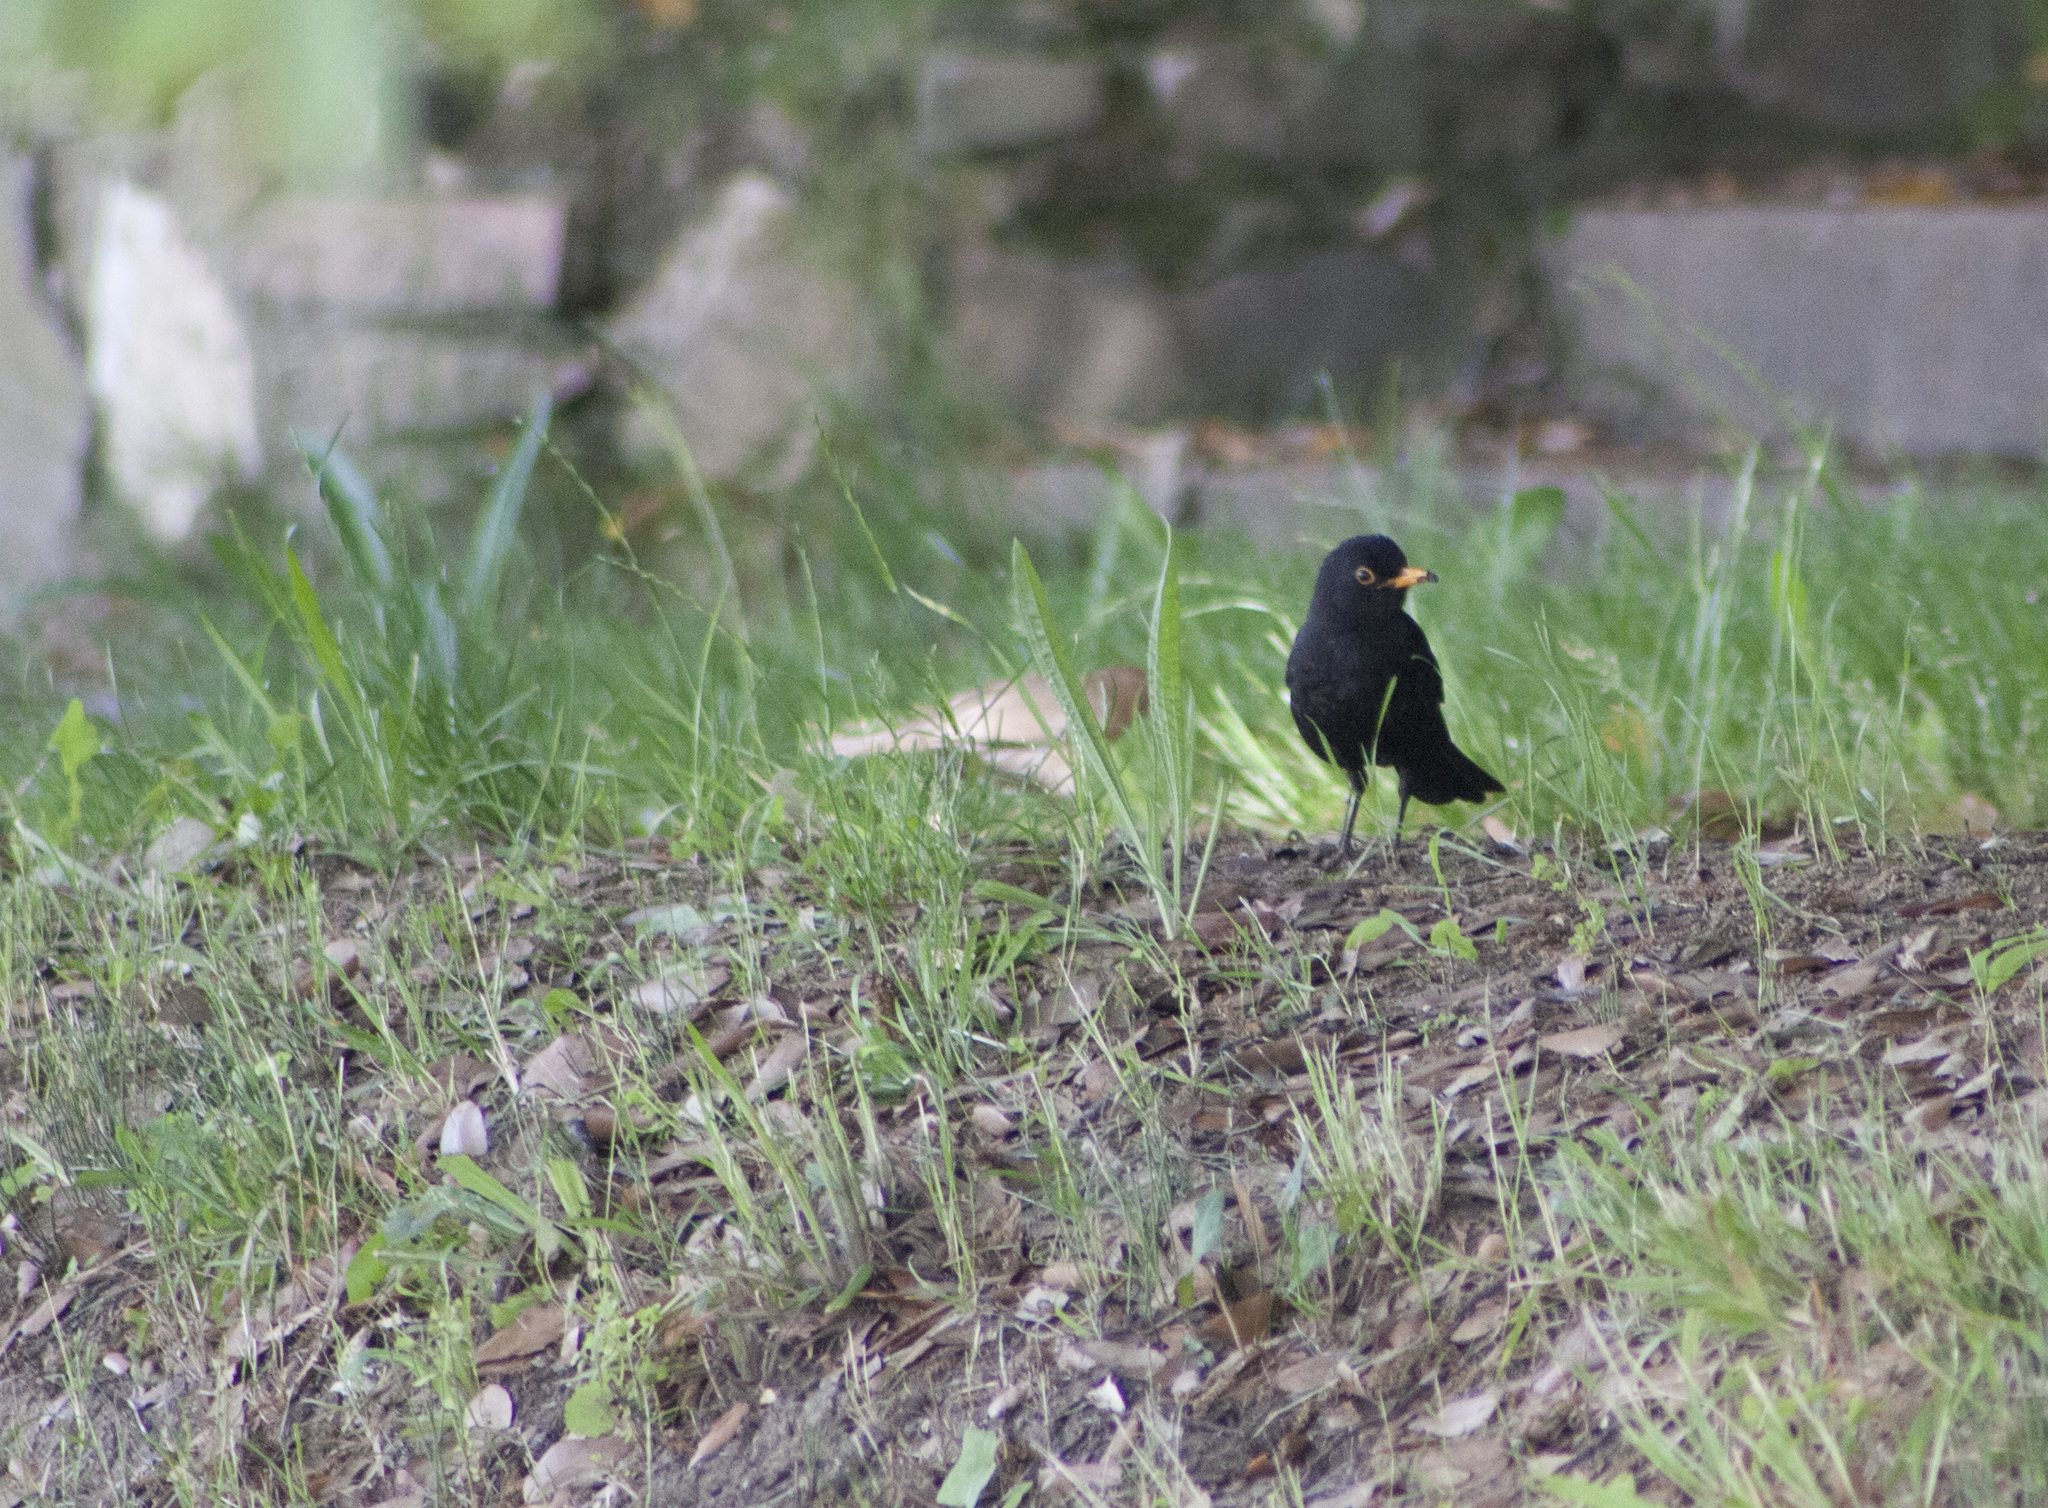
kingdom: Animalia
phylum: Chordata
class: Aves
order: Passeriformes
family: Turdidae
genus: Turdus
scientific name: Turdus merula
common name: Common blackbird
